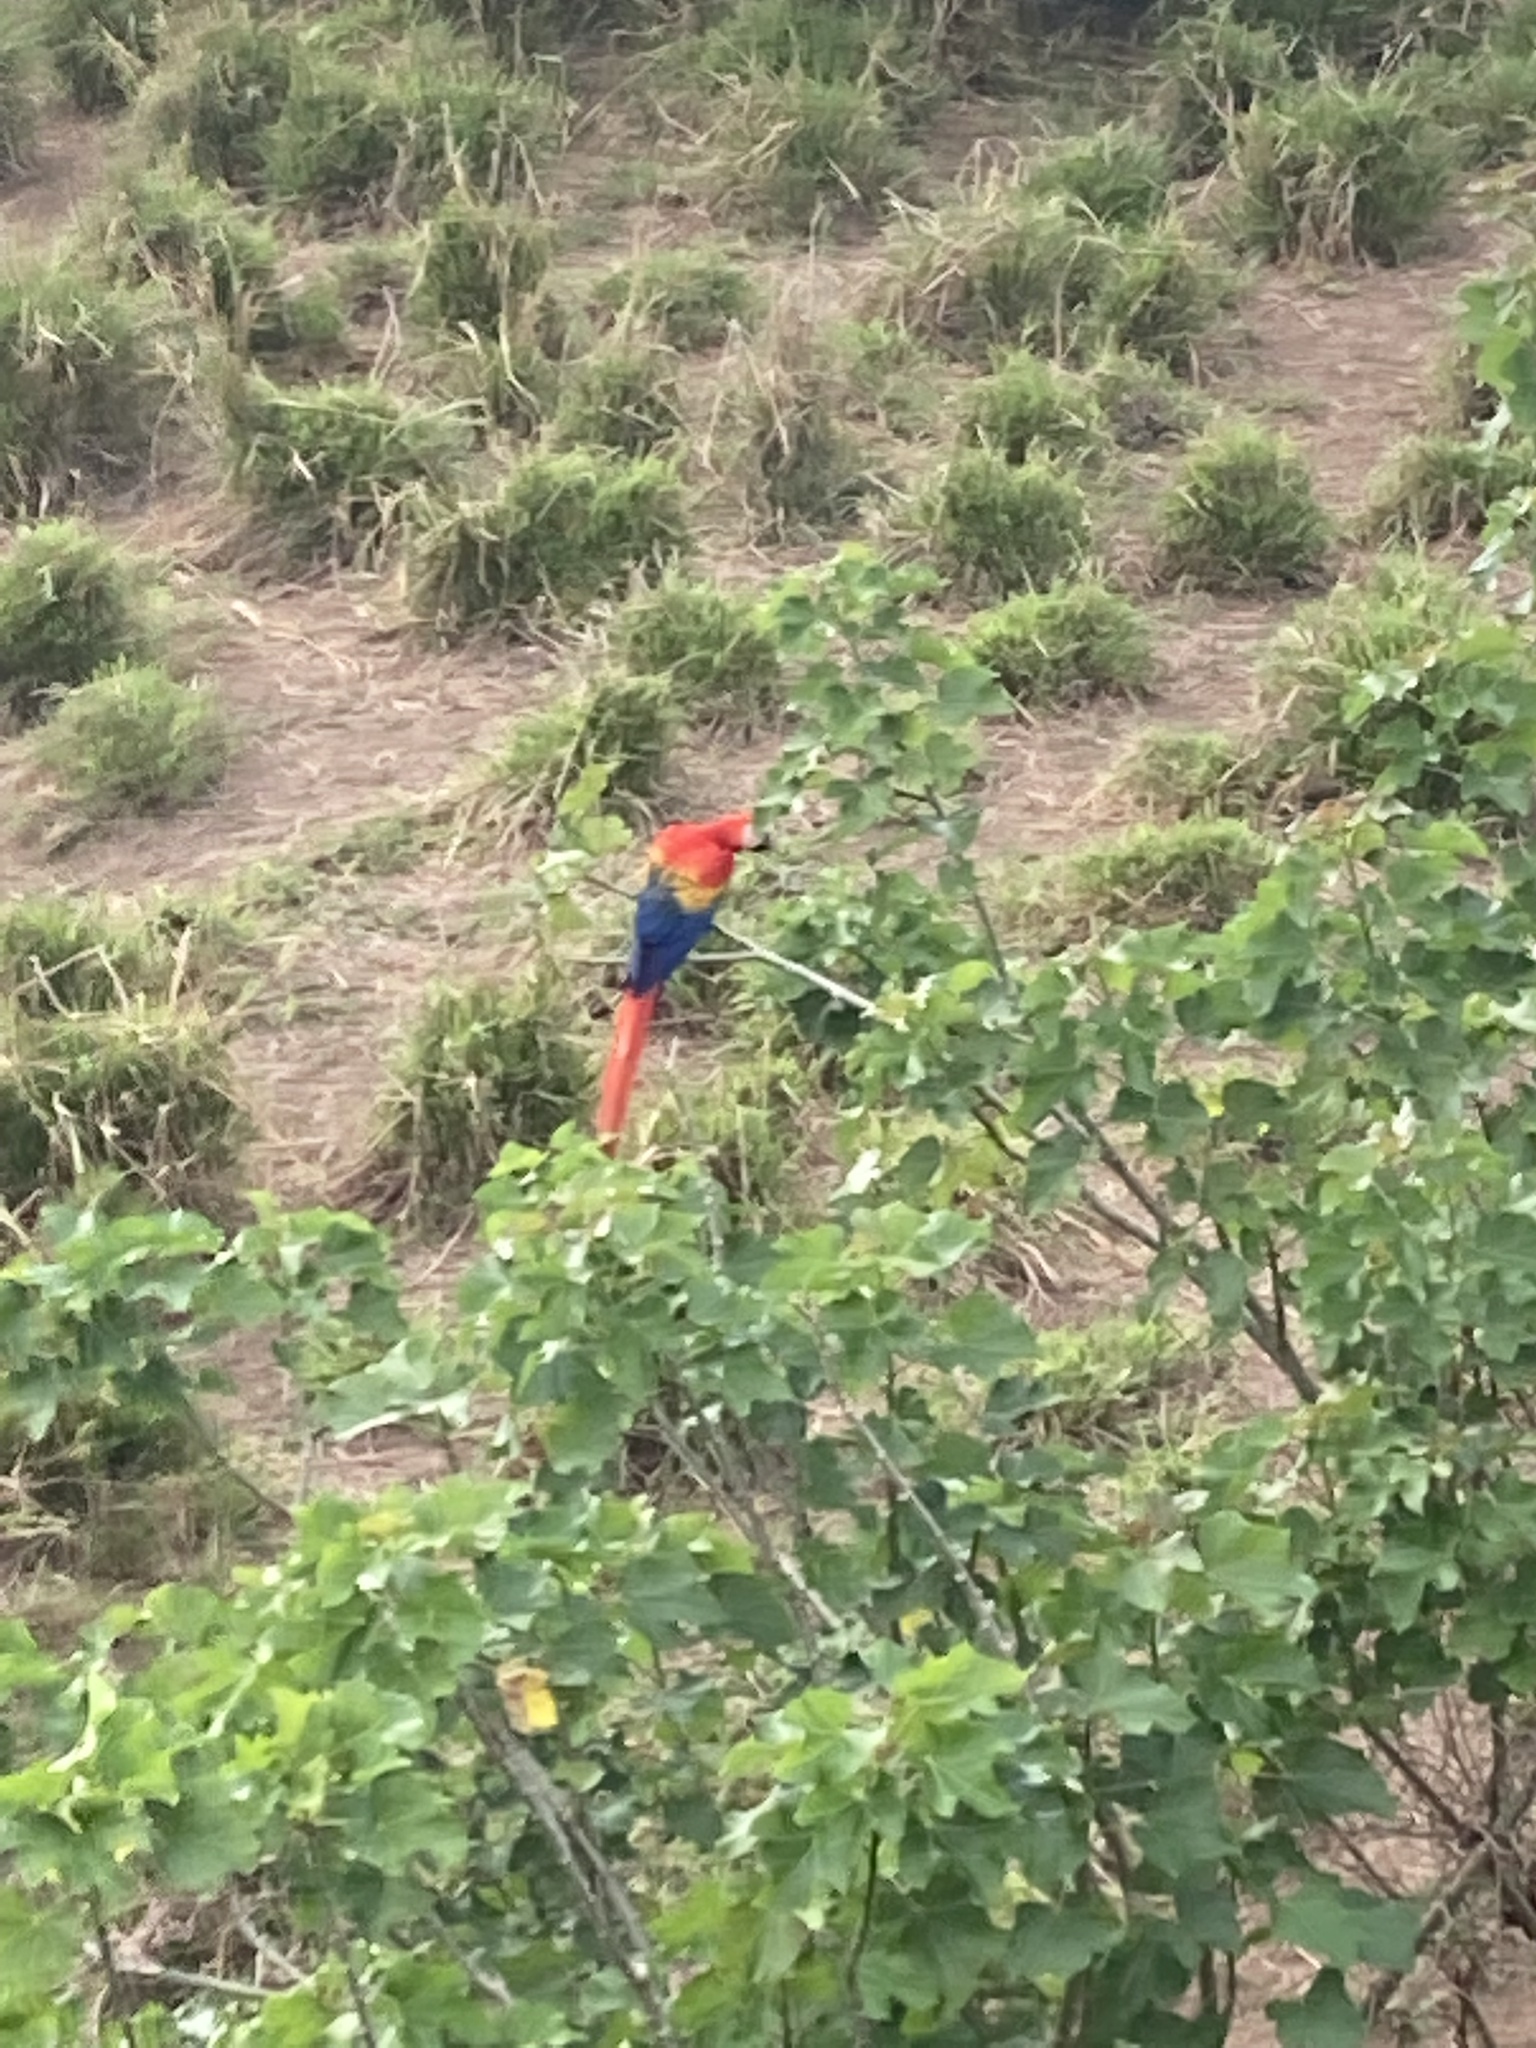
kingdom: Animalia
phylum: Chordata
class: Aves
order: Psittaciformes
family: Psittacidae
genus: Ara
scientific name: Ara macao
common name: Scarlet macaw
